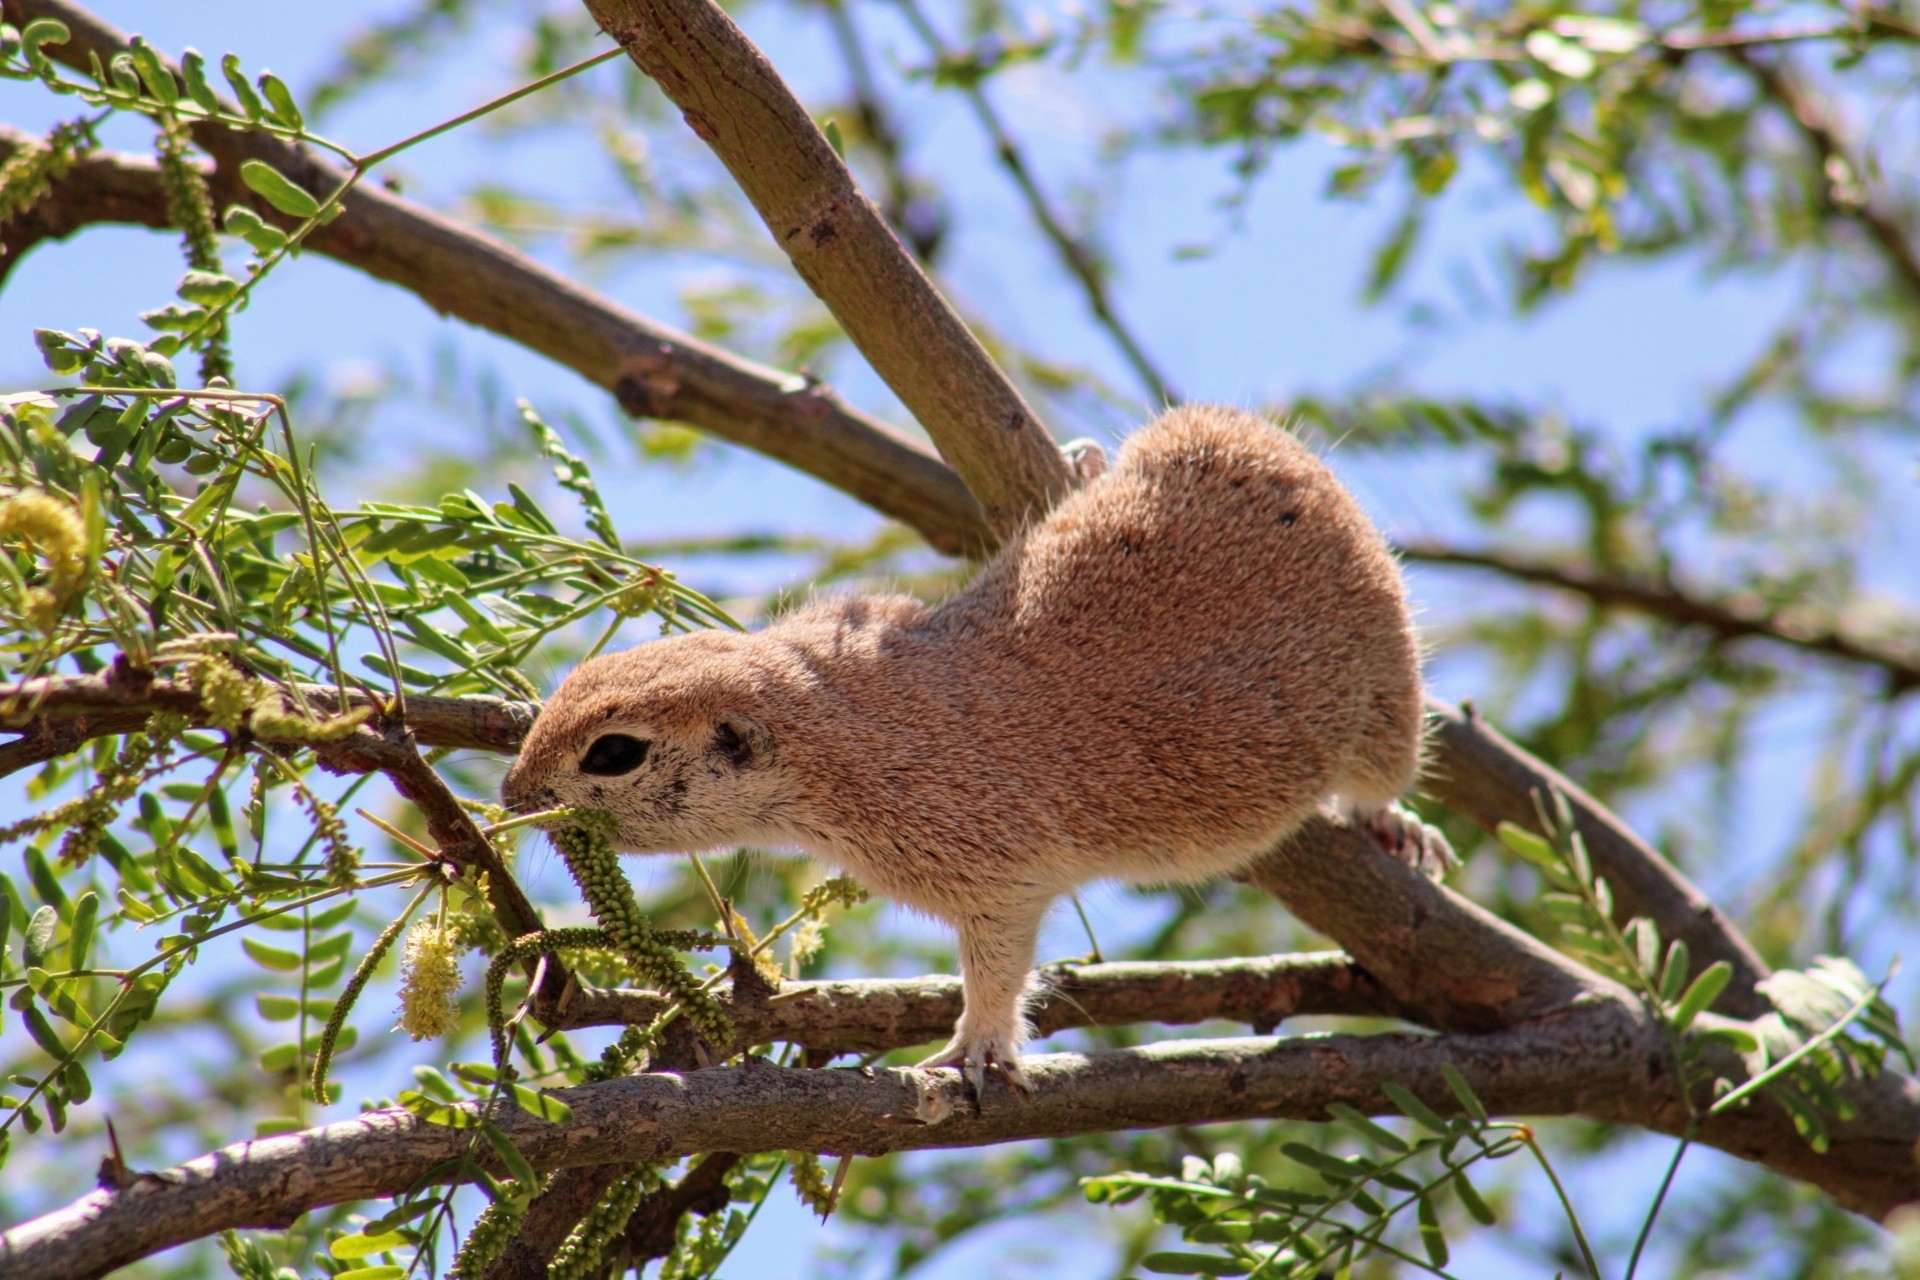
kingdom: Animalia
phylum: Chordata
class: Mammalia
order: Rodentia
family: Sciuridae
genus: Xerospermophilus
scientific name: Xerospermophilus tereticaudus
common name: Round-tailed ground squirrel
